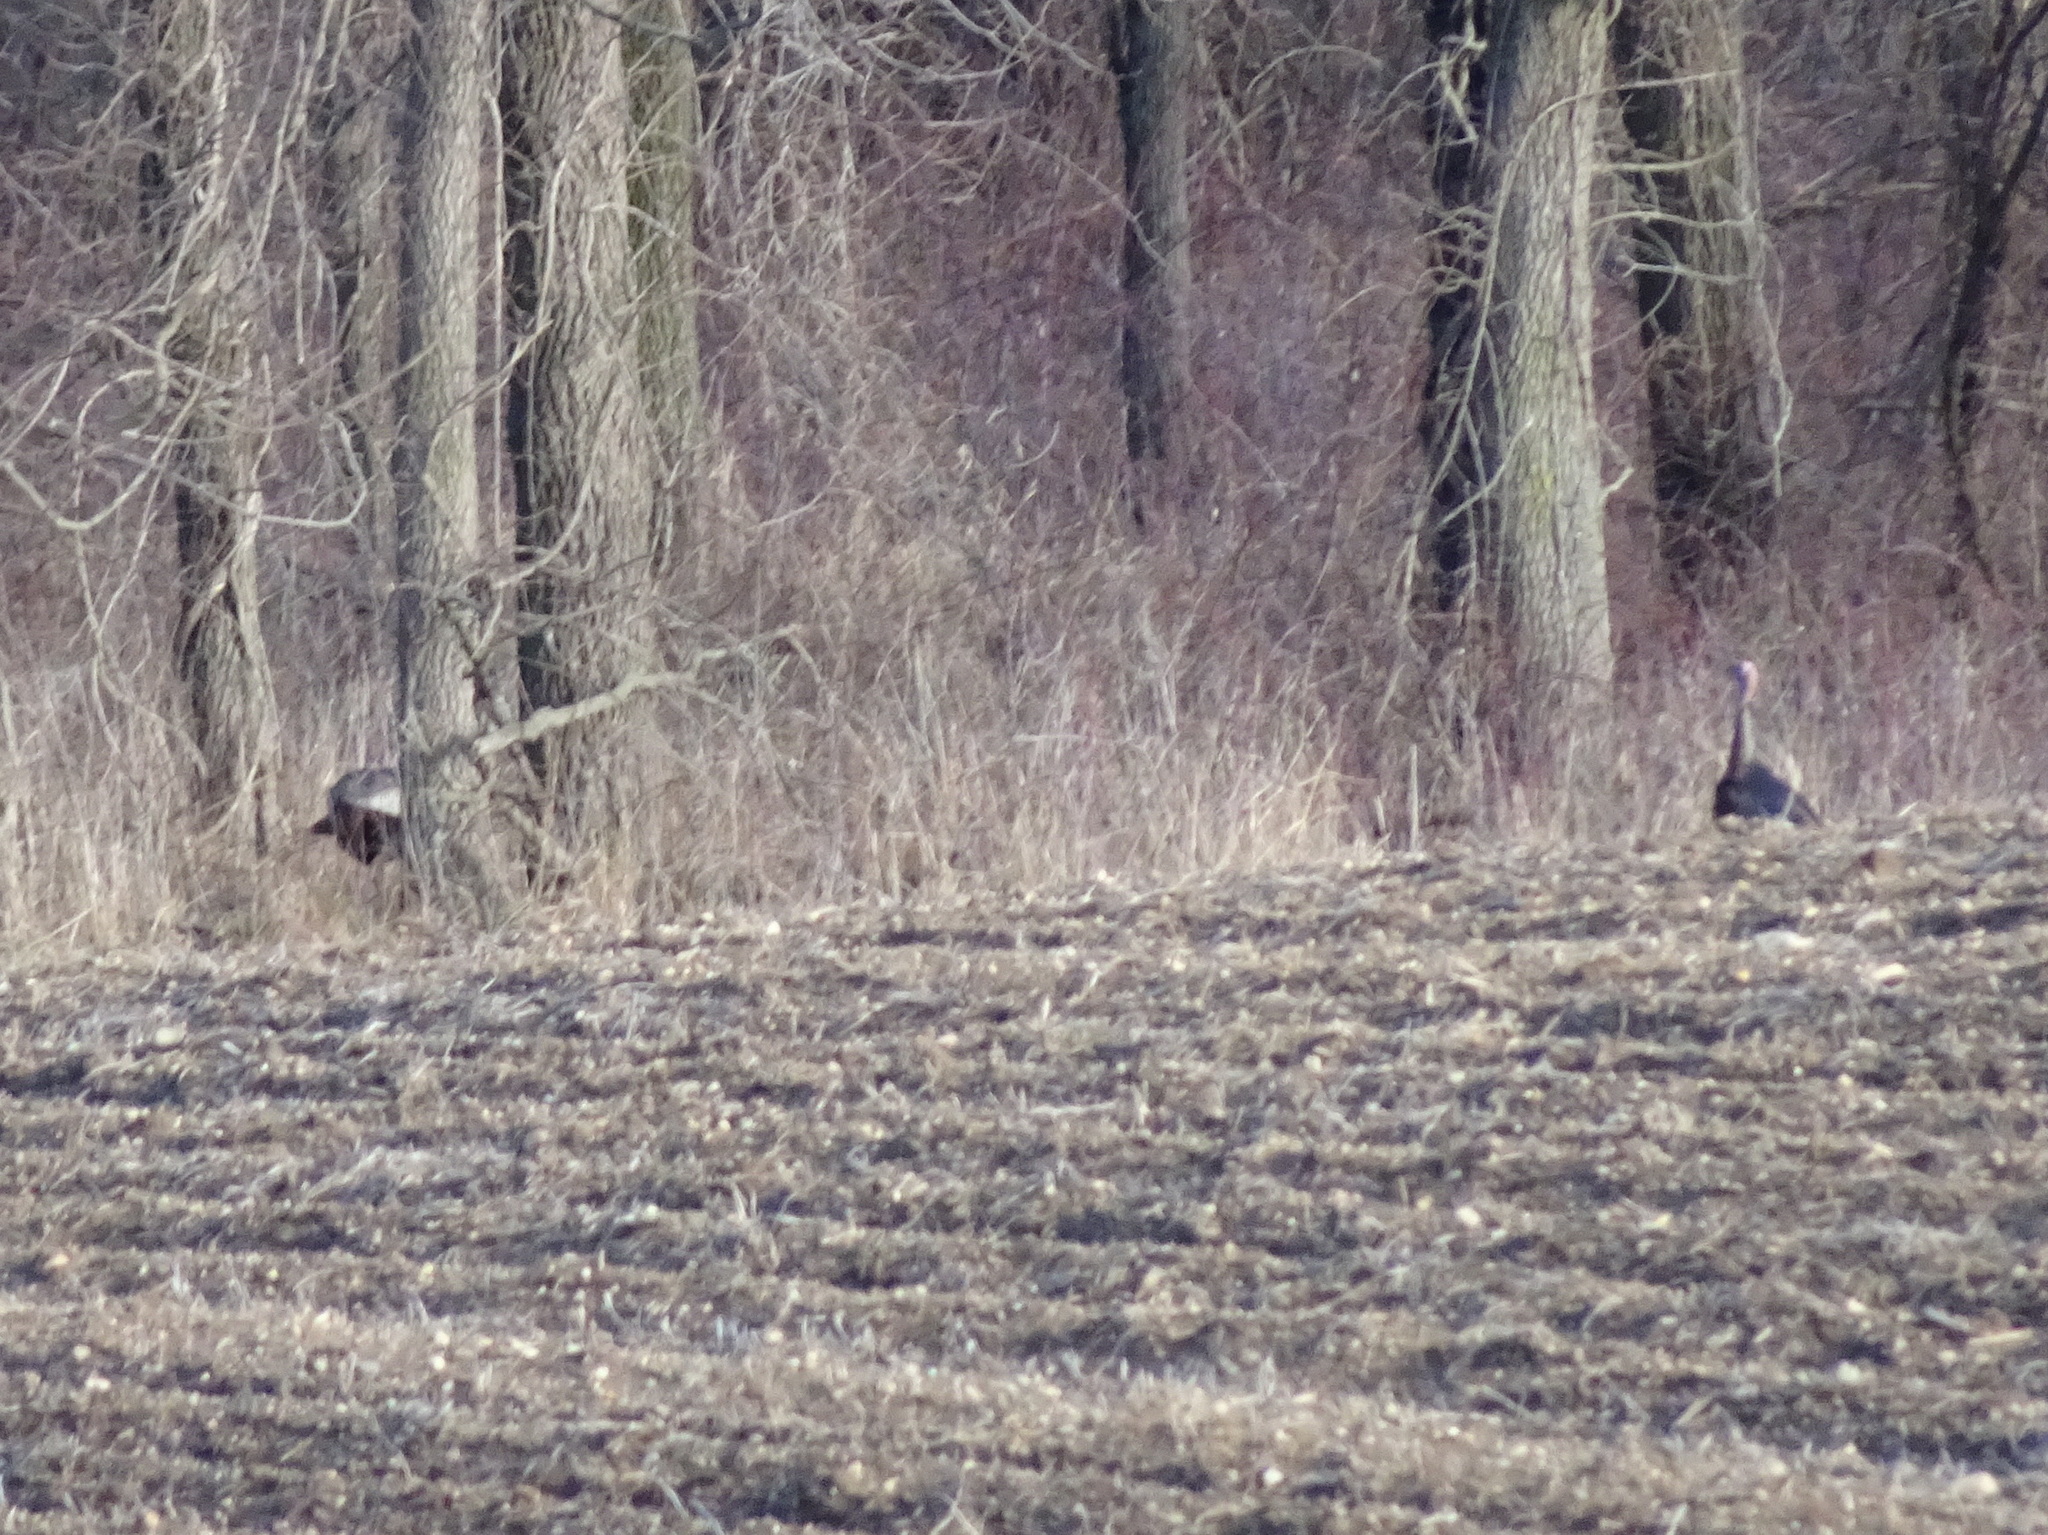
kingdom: Animalia
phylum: Chordata
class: Aves
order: Galliformes
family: Phasianidae
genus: Meleagris
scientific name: Meleagris gallopavo
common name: Wild turkey
